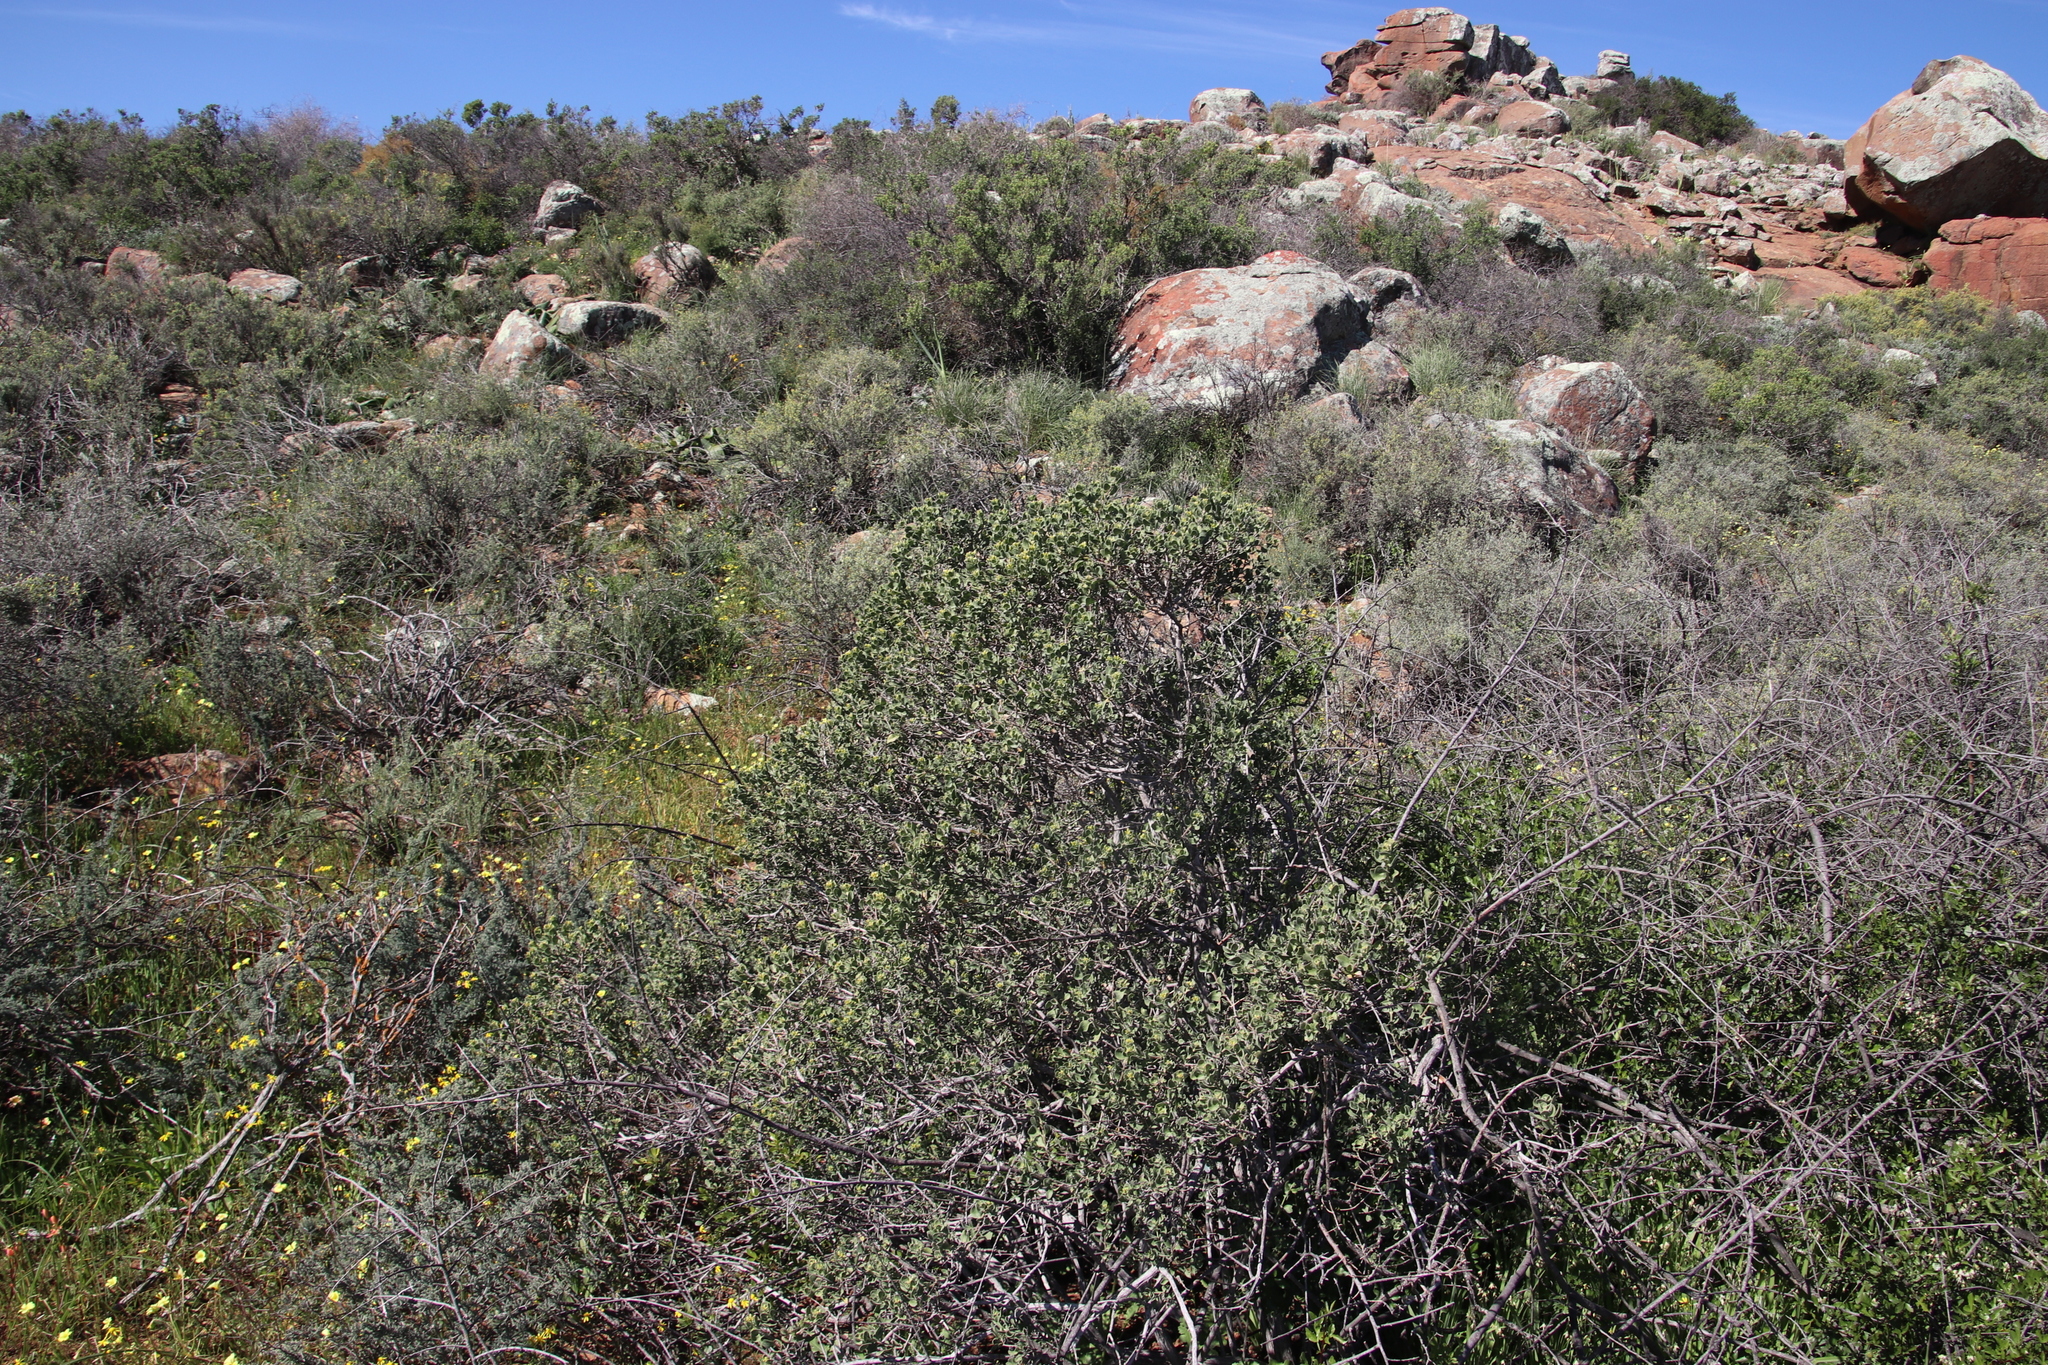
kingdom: Plantae
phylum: Tracheophyta
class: Magnoliopsida
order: Asterales
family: Asteraceae
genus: Pteronia
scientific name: Pteronia divaricata
